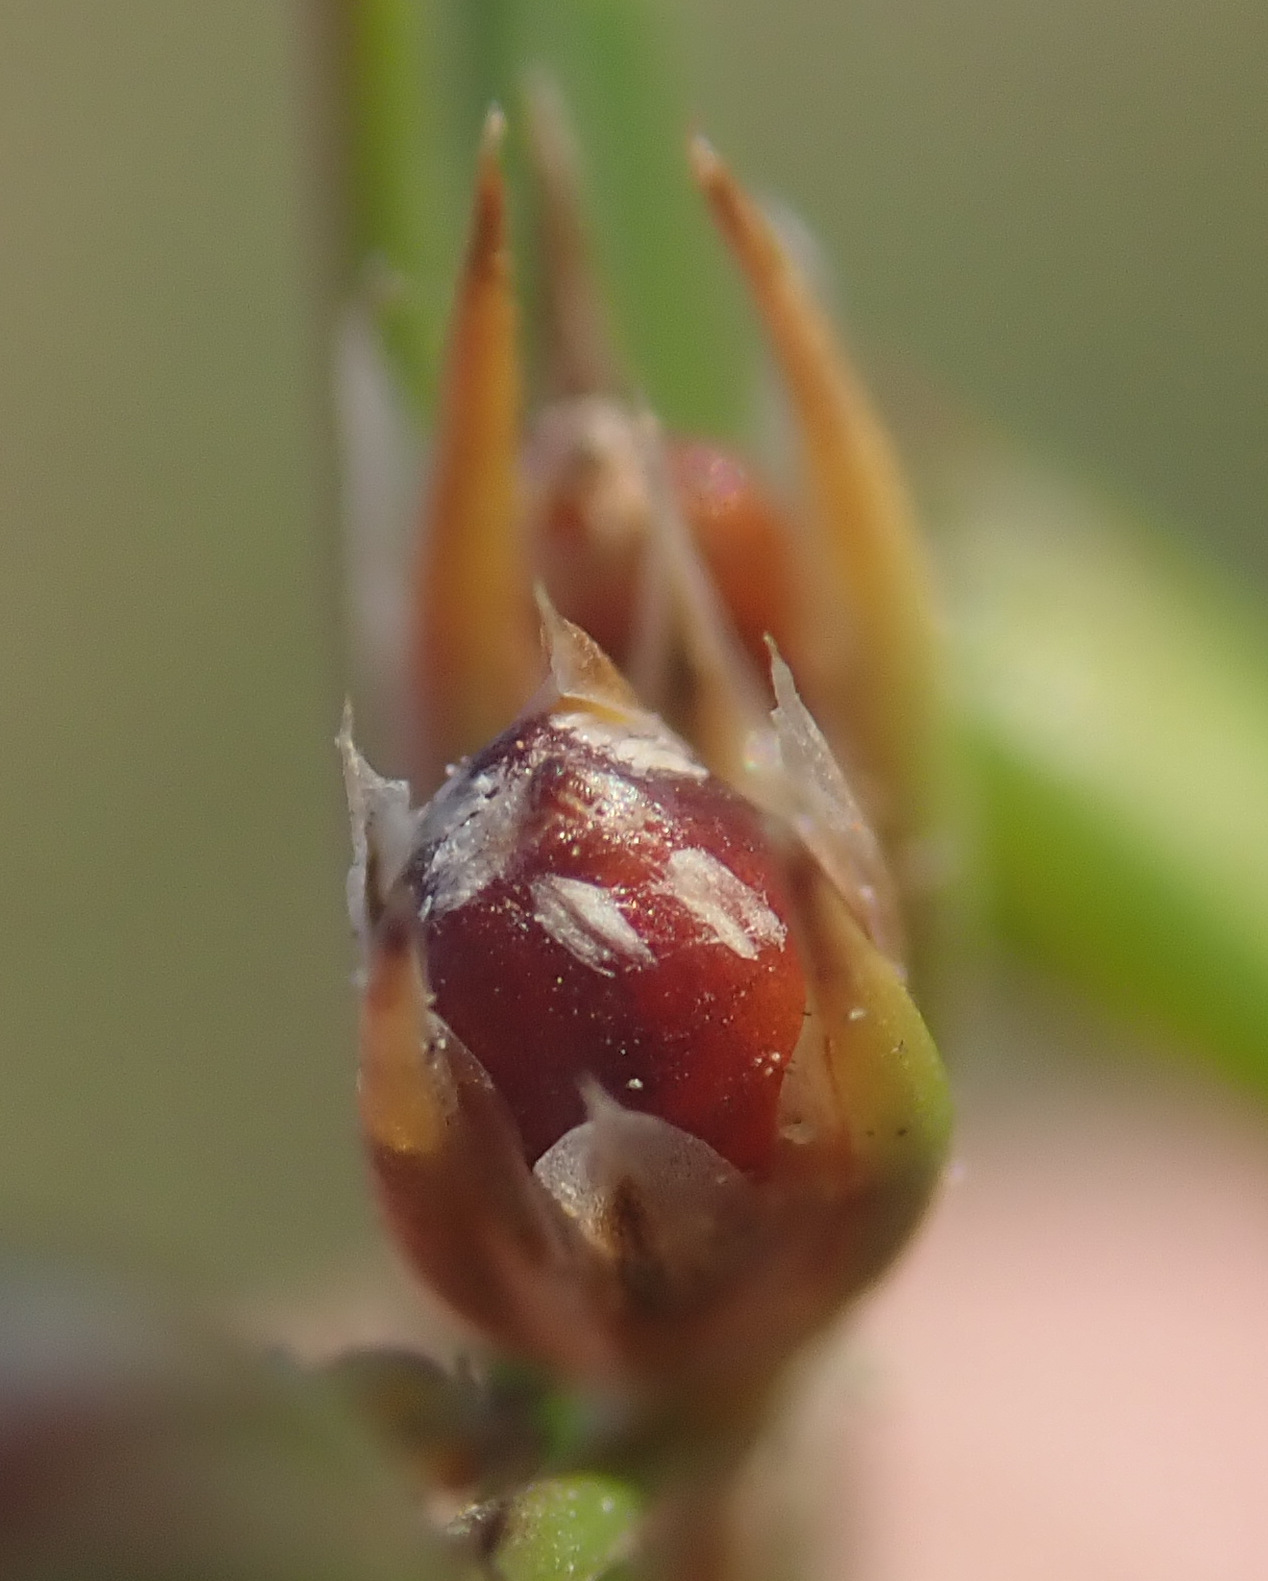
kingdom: Plantae
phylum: Tracheophyta
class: Liliopsida
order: Poales
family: Juncaceae
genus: Juncus
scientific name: Juncus bufonius
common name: Toad rush
